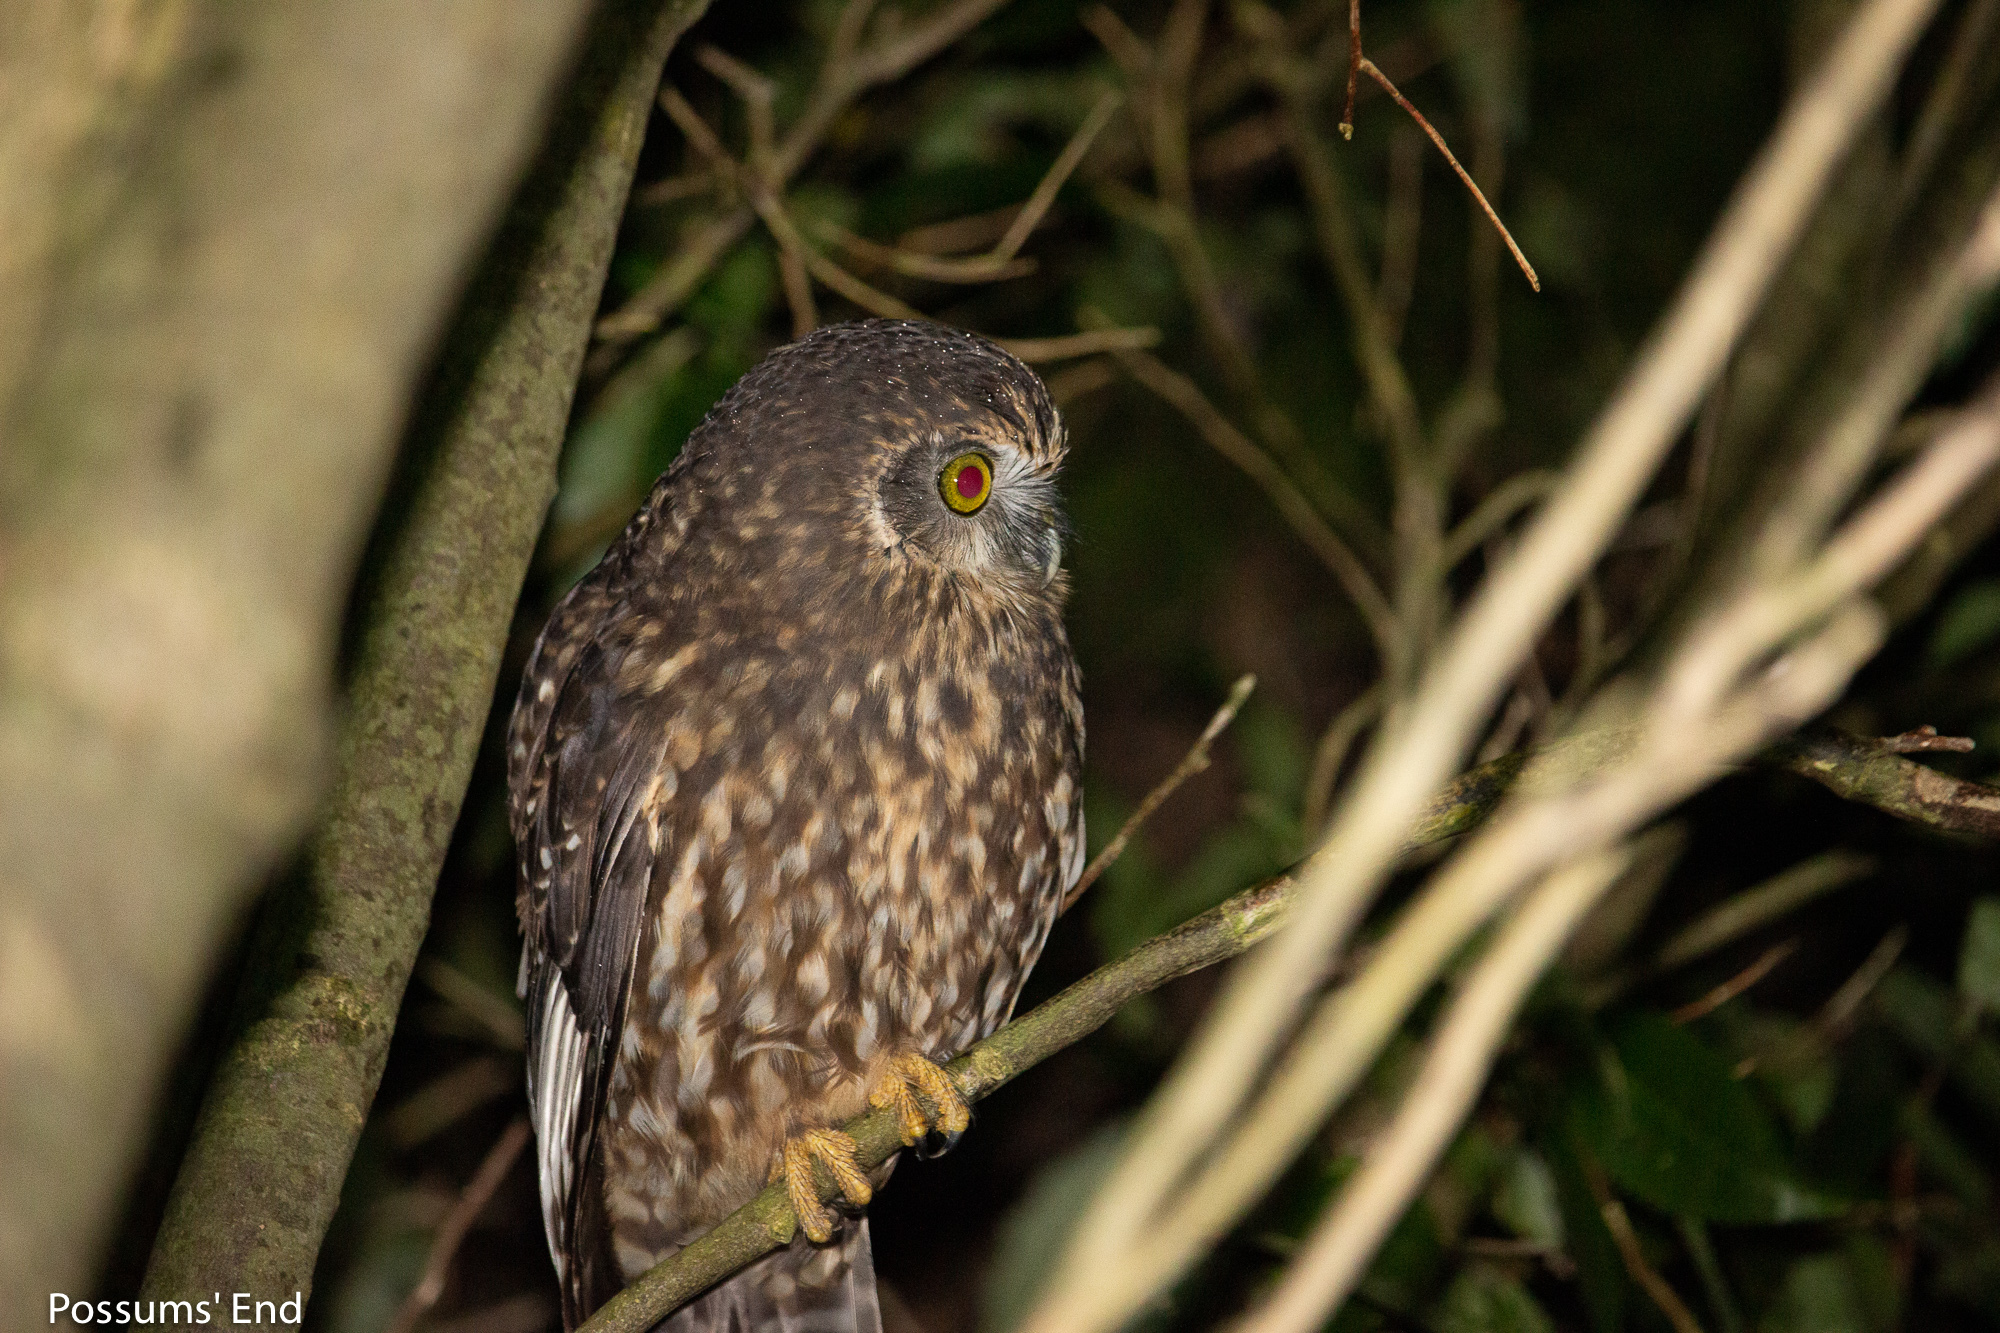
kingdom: Animalia
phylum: Chordata
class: Aves
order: Strigiformes
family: Strigidae
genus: Ninox
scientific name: Ninox novaeseelandiae
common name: Morepork
